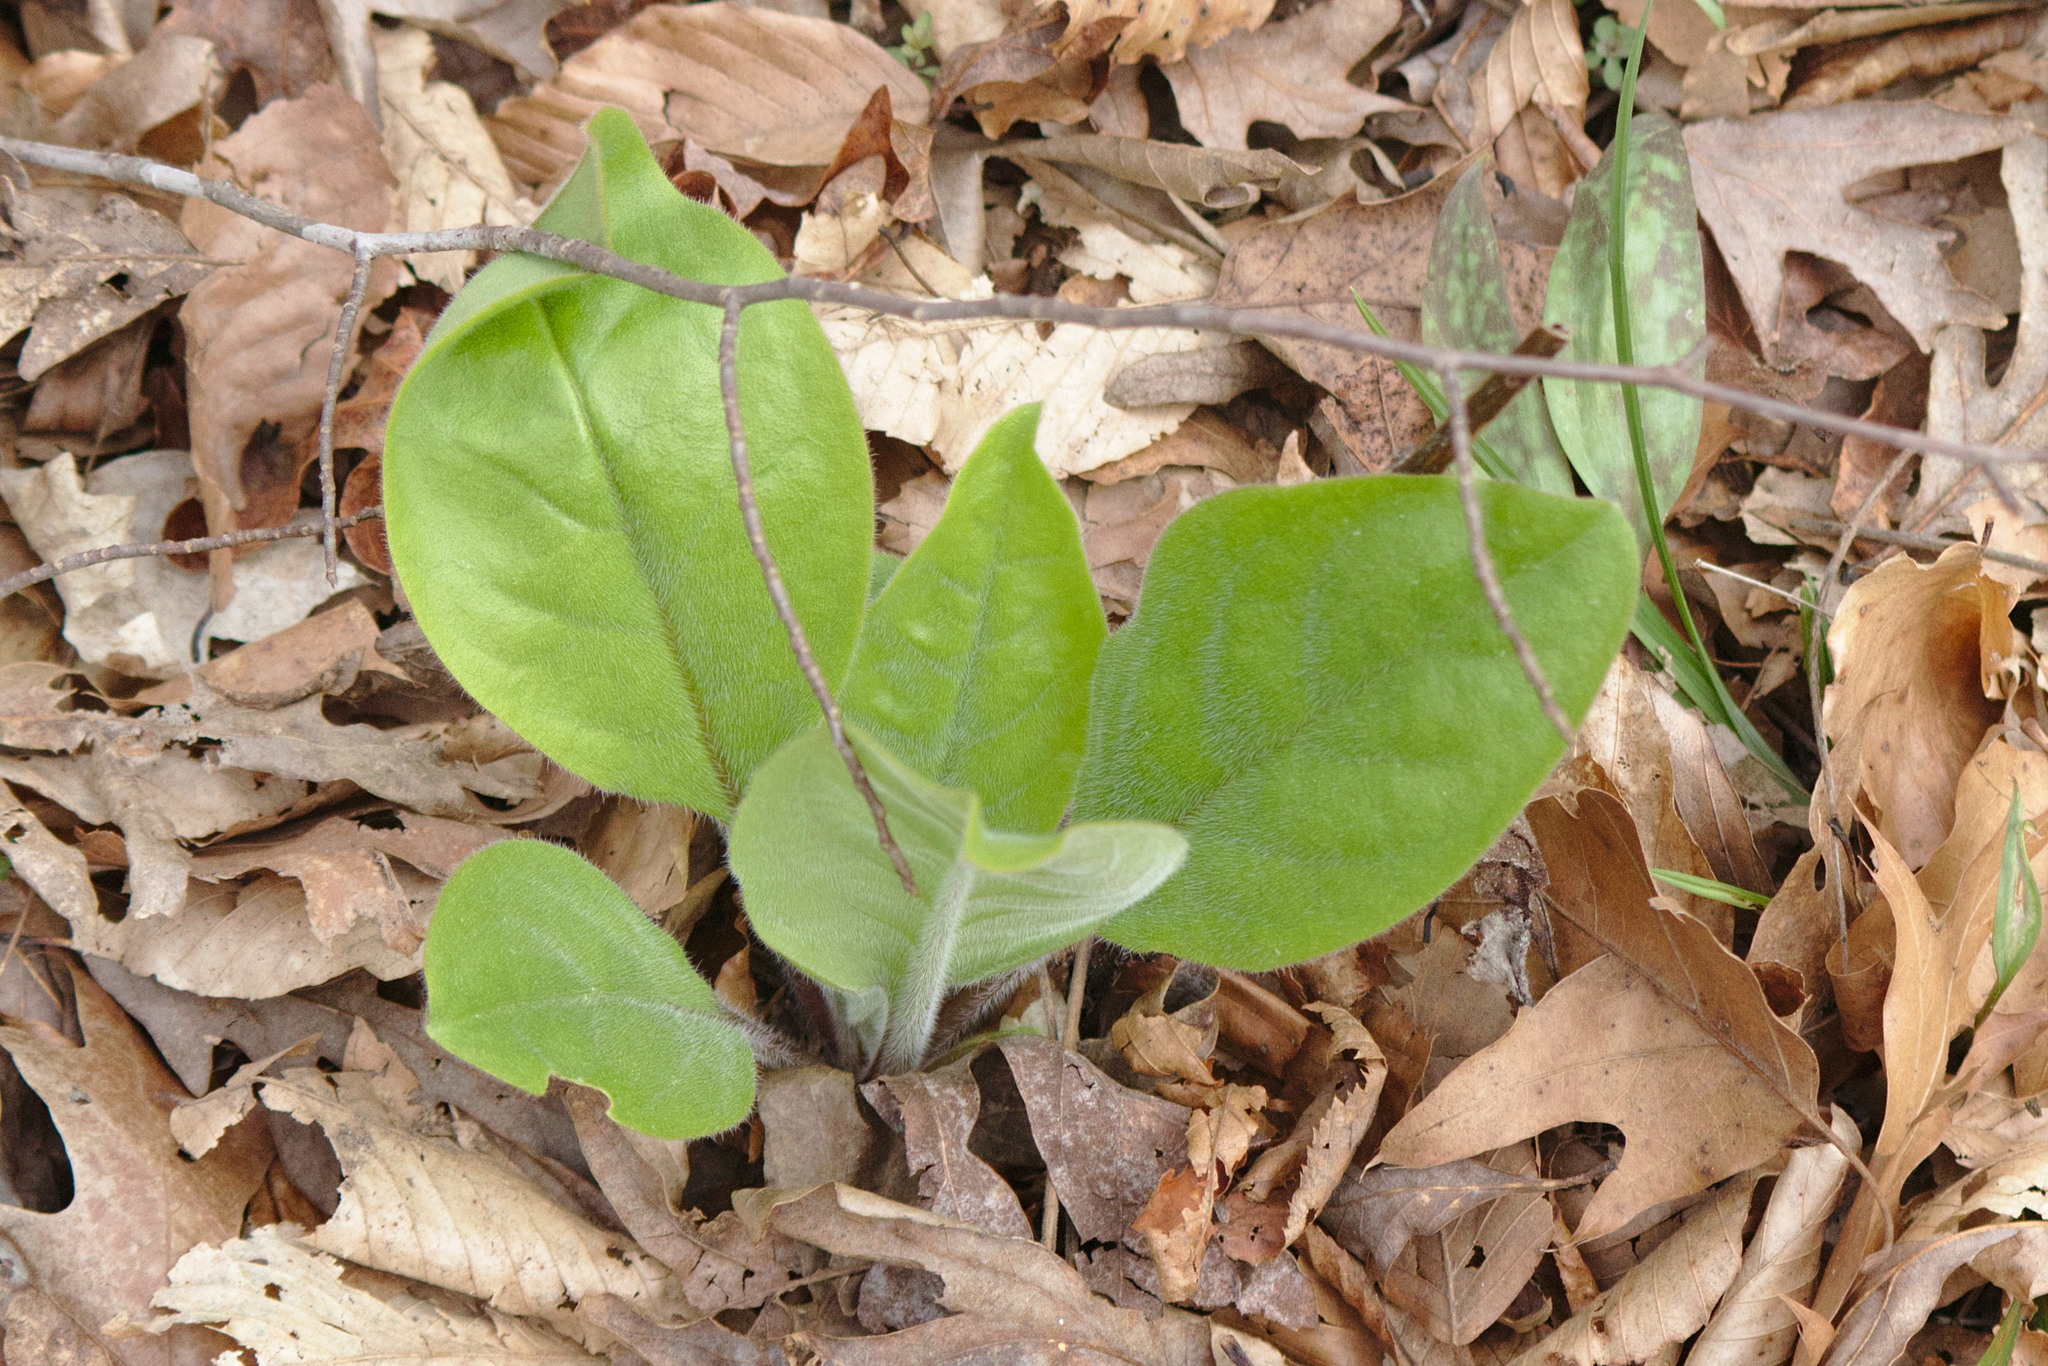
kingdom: Plantae
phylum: Tracheophyta
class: Magnoliopsida
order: Boraginales
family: Boraginaceae
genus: Andersonglossum
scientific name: Andersonglossum virginianum
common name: Wild comfrey
